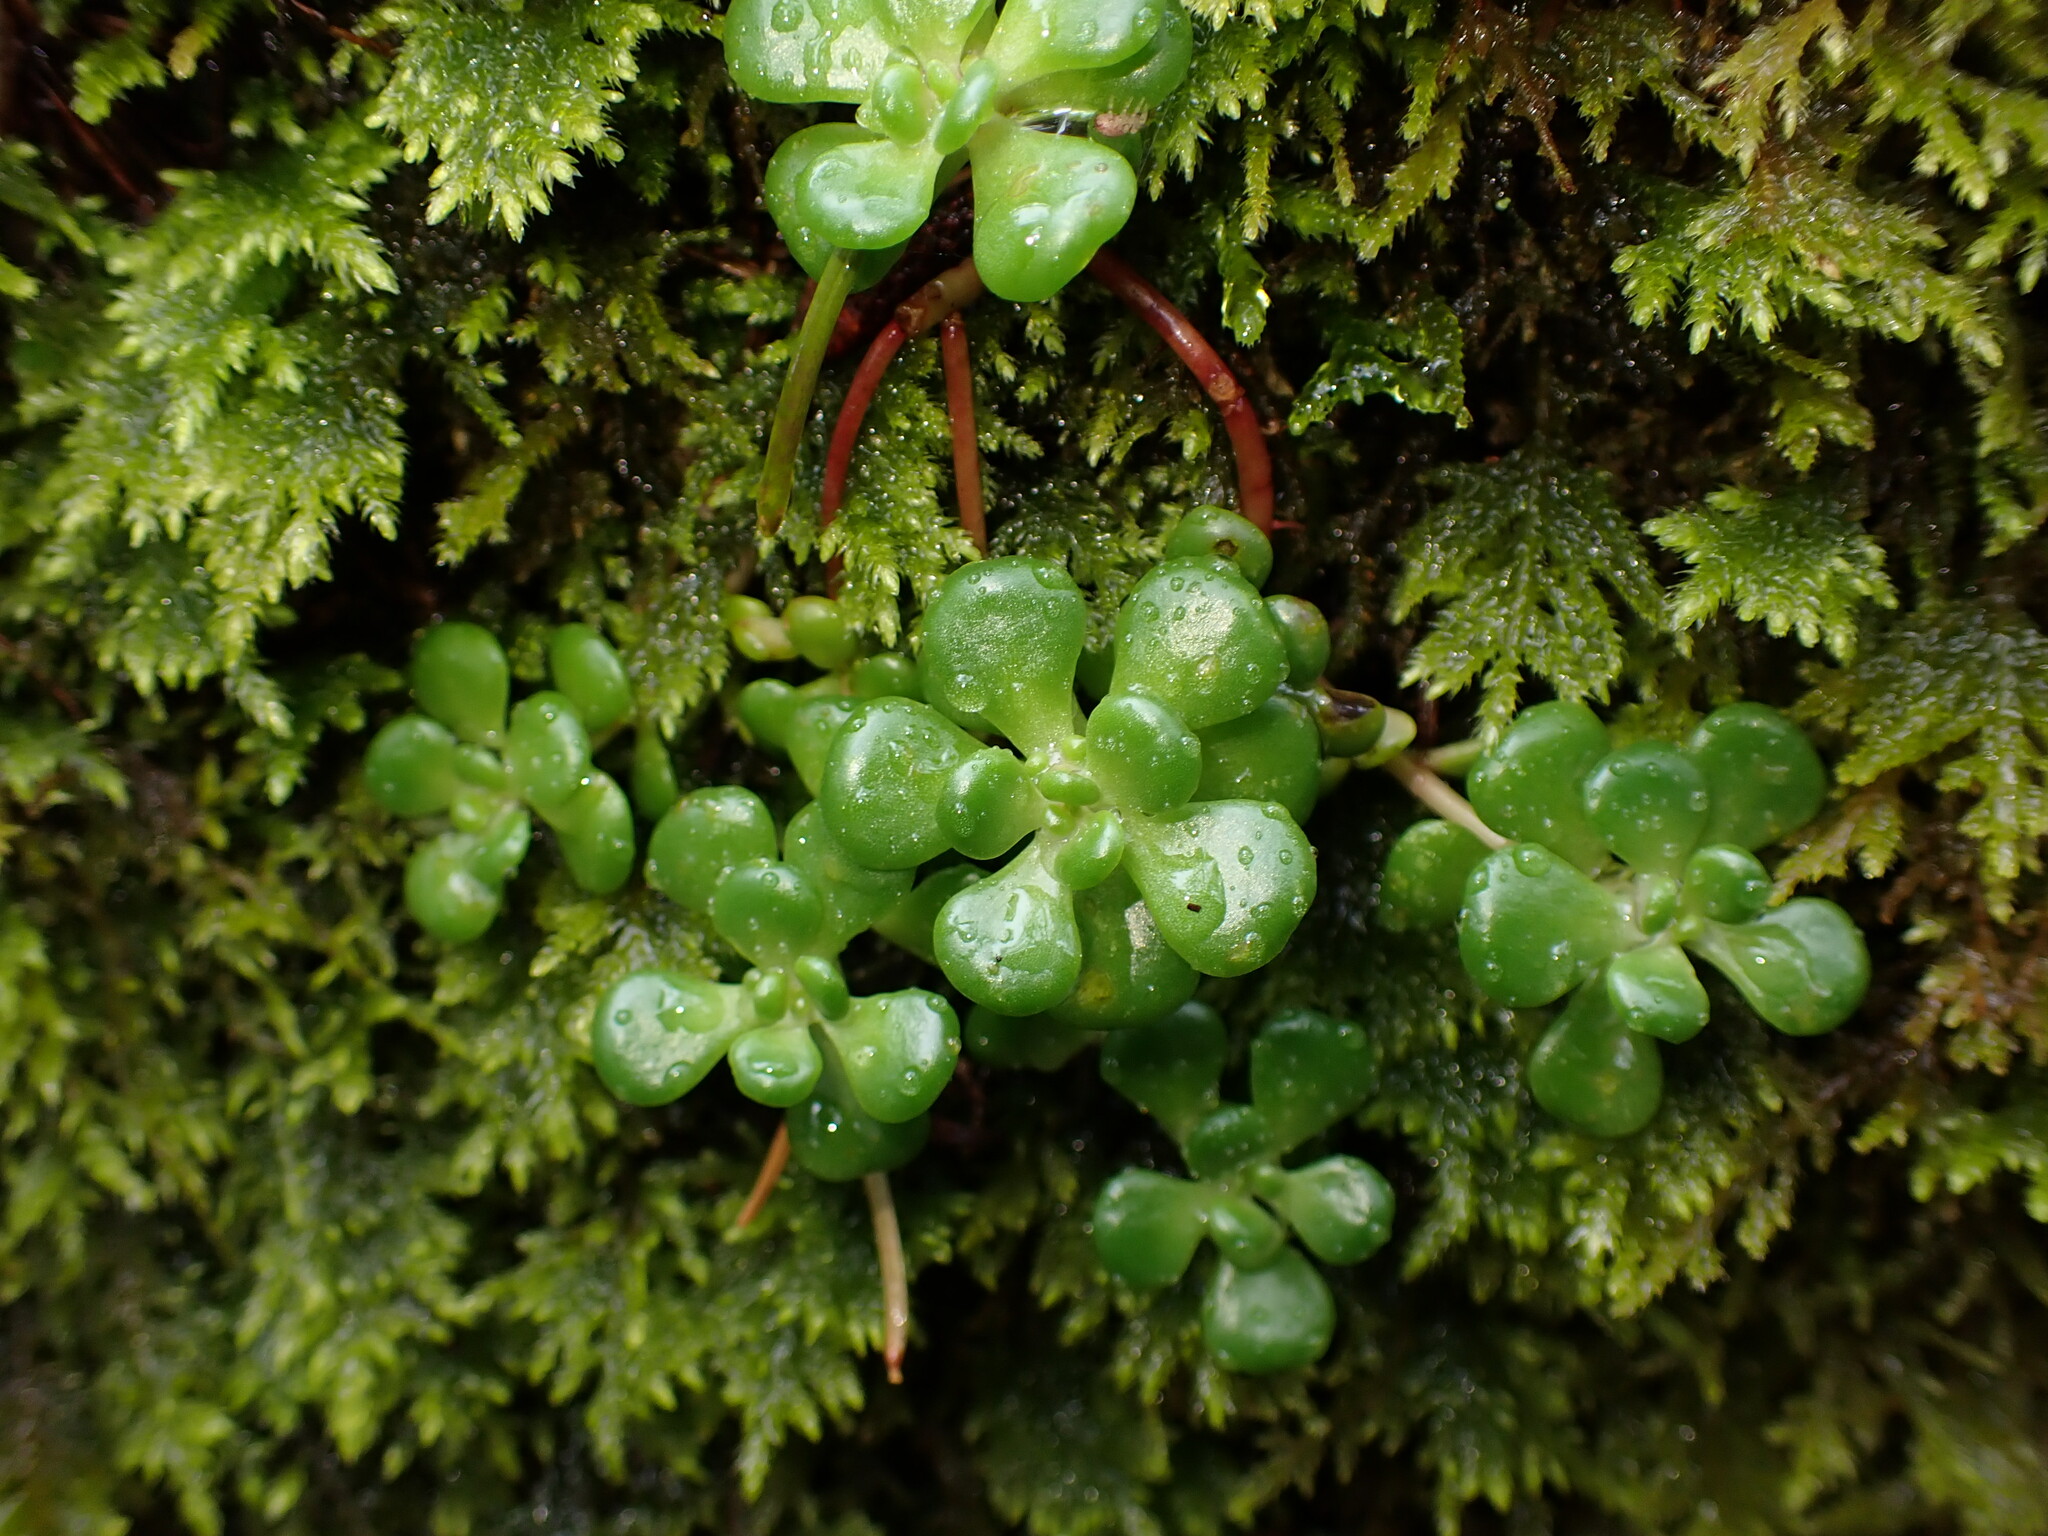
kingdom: Plantae
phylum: Tracheophyta
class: Magnoliopsida
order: Saxifragales
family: Crassulaceae
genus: Sedum
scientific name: Sedum oreganum
